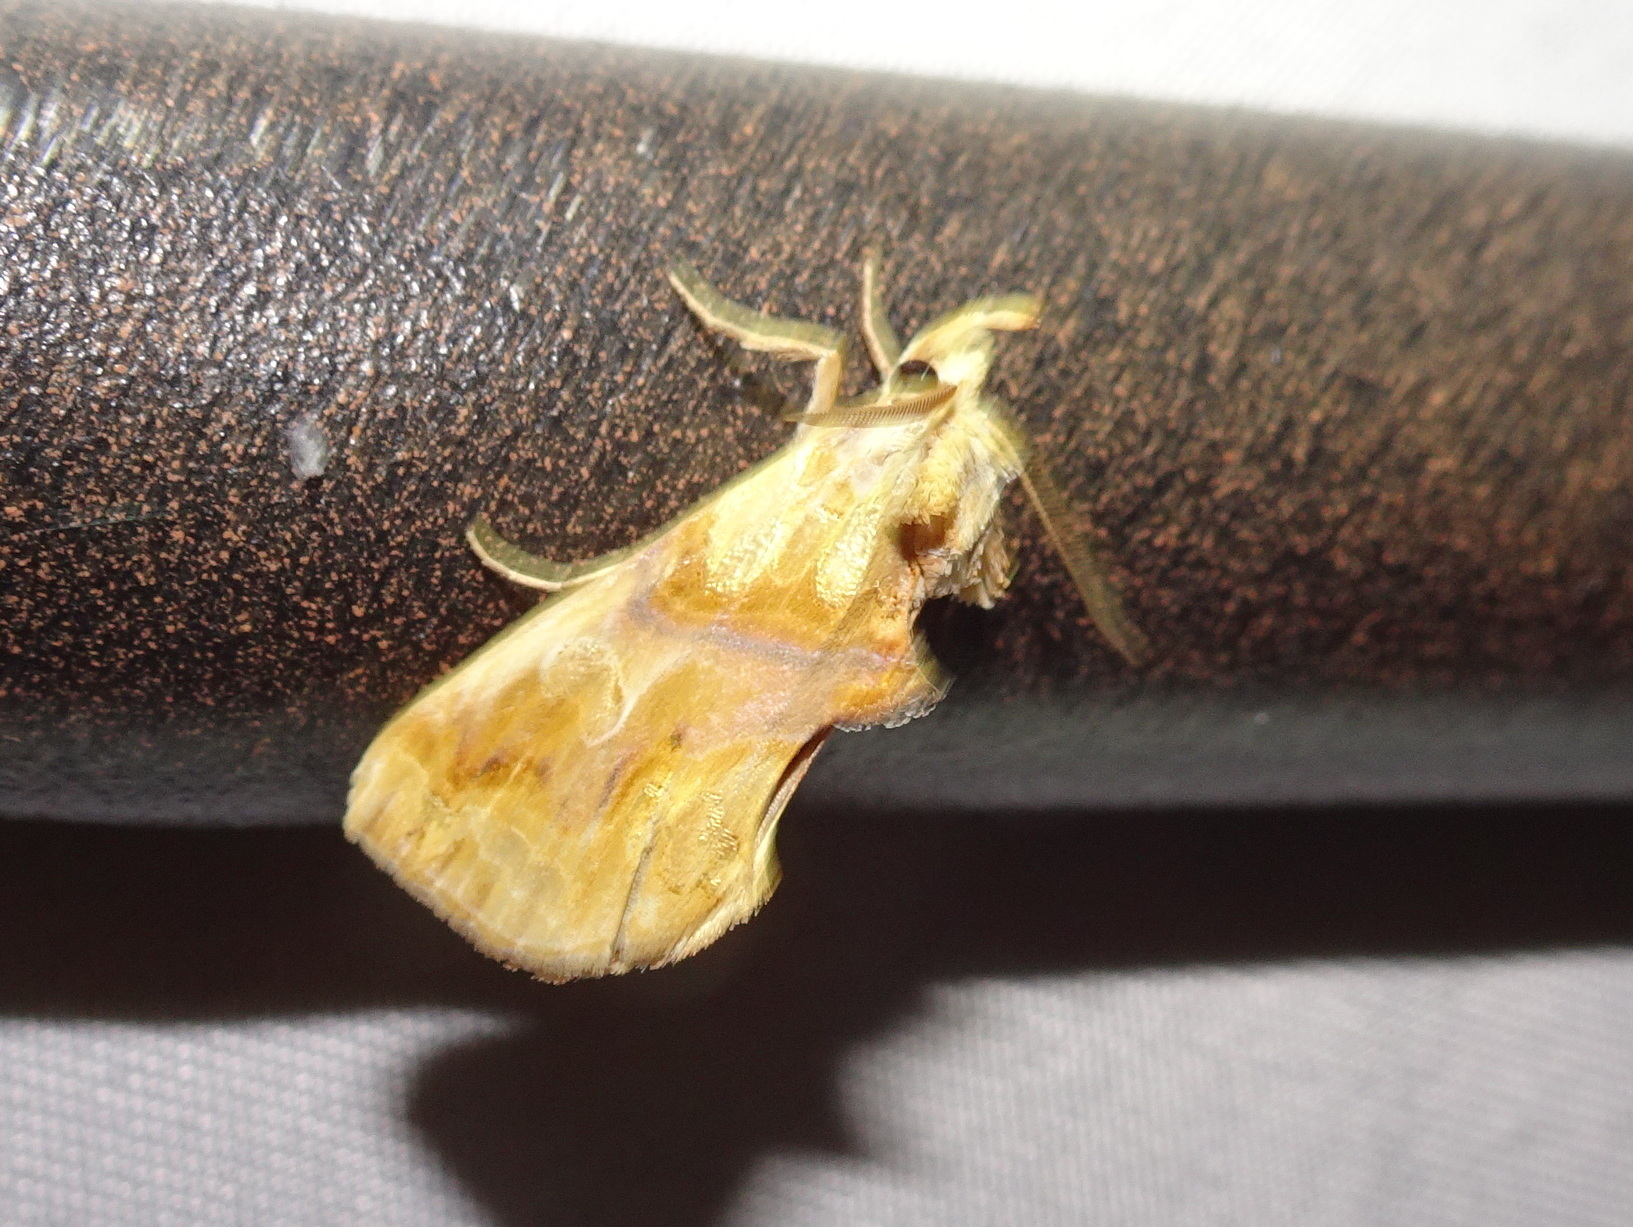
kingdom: Animalia
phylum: Arthropoda
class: Insecta
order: Lepidoptera
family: Erebidae
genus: Plusiodonta
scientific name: Plusiodonta compressipalpis
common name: Moonseed moth
